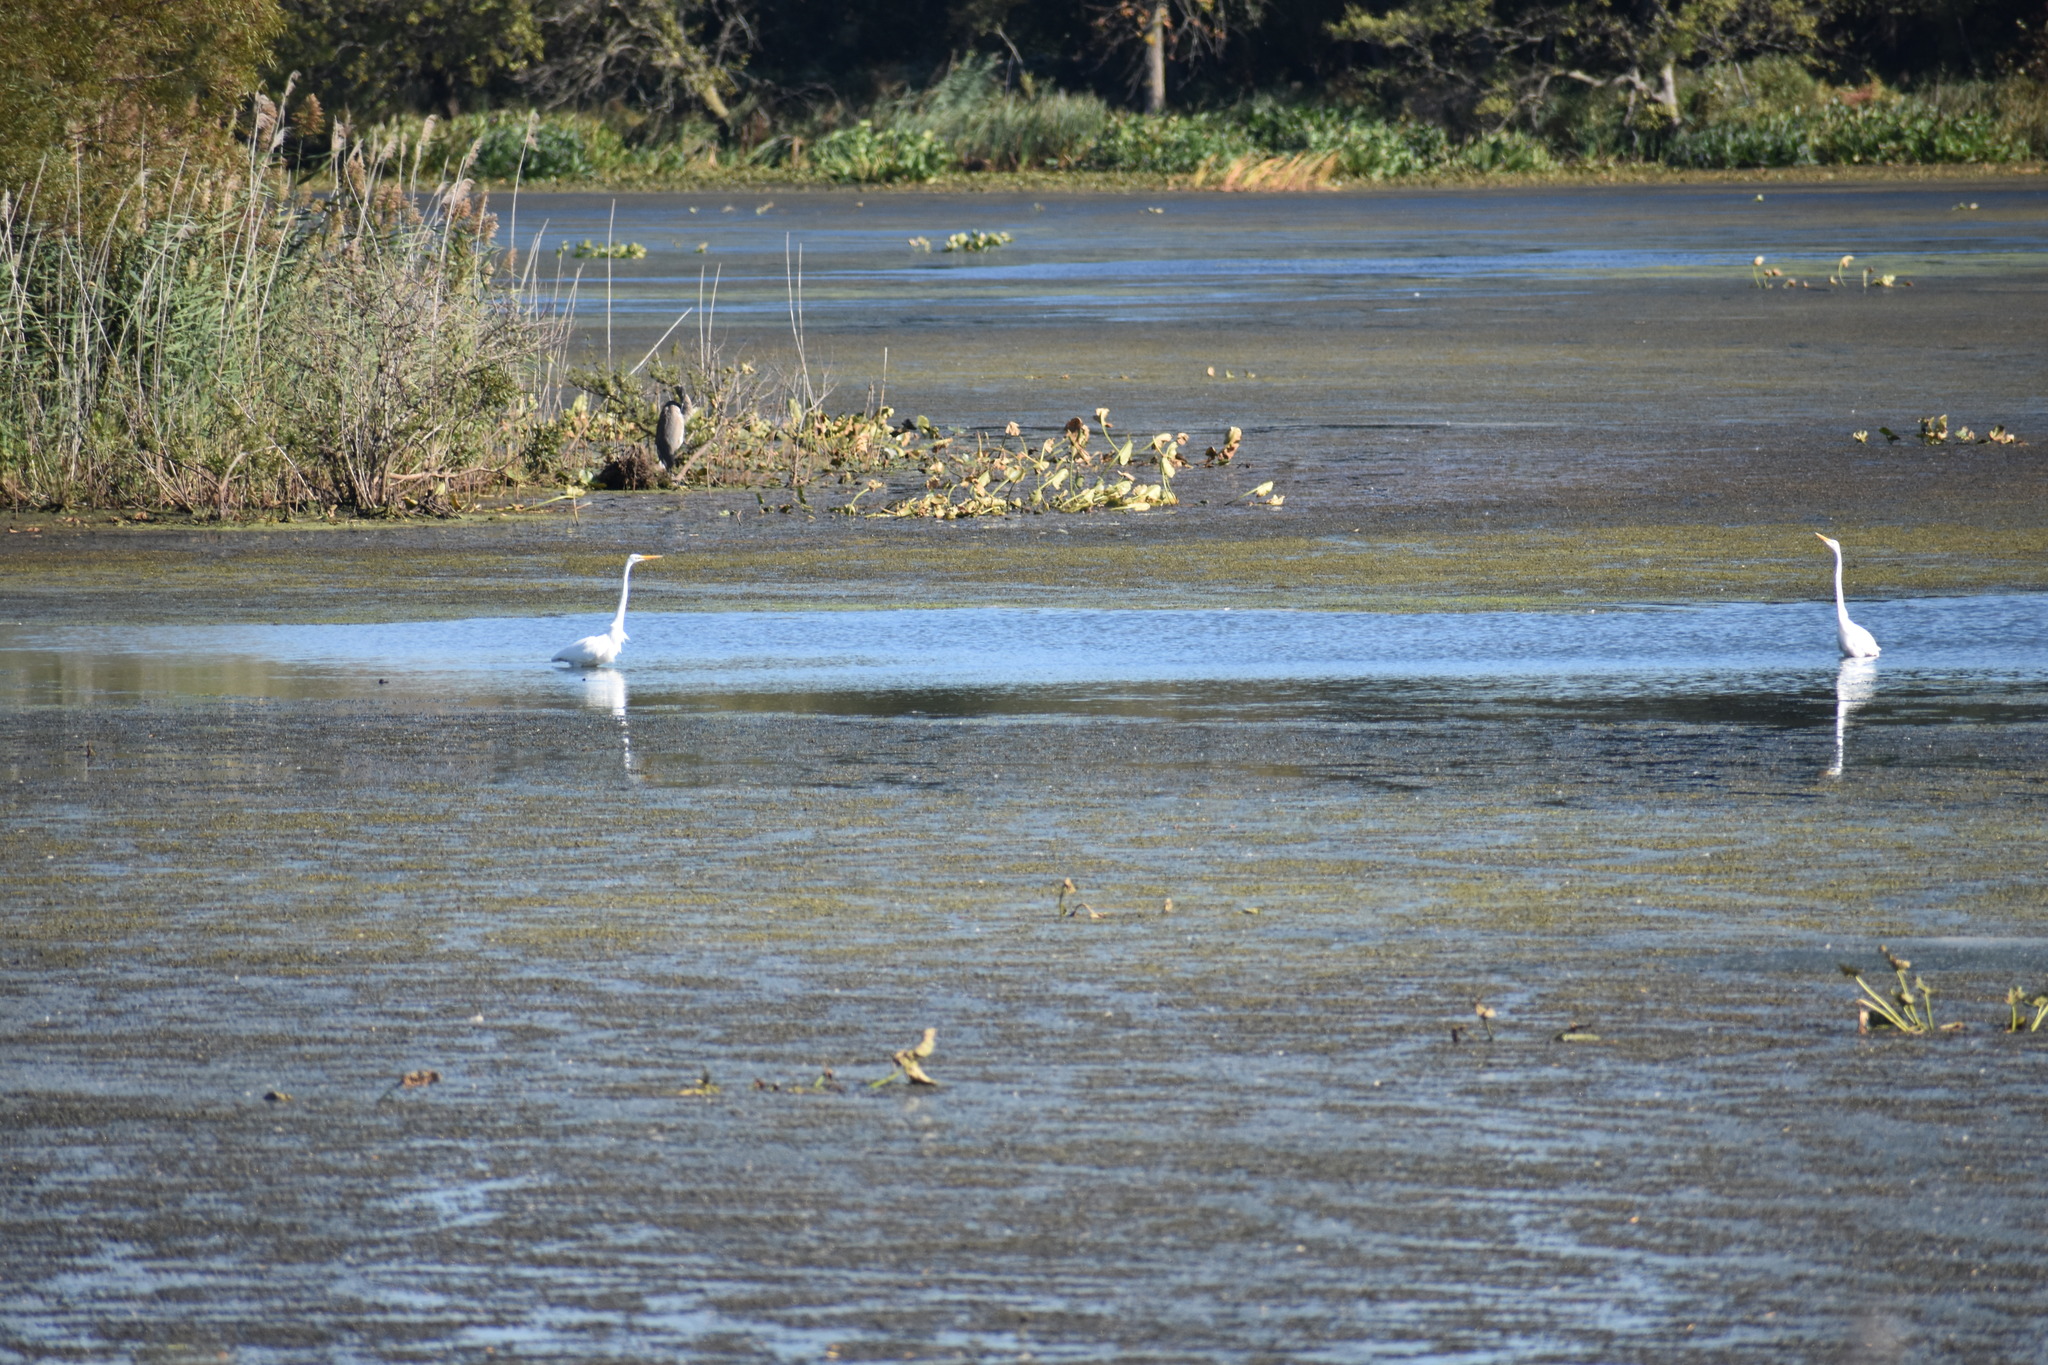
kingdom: Animalia
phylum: Chordata
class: Aves
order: Pelecaniformes
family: Ardeidae
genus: Ardea
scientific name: Ardea alba
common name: Great egret
